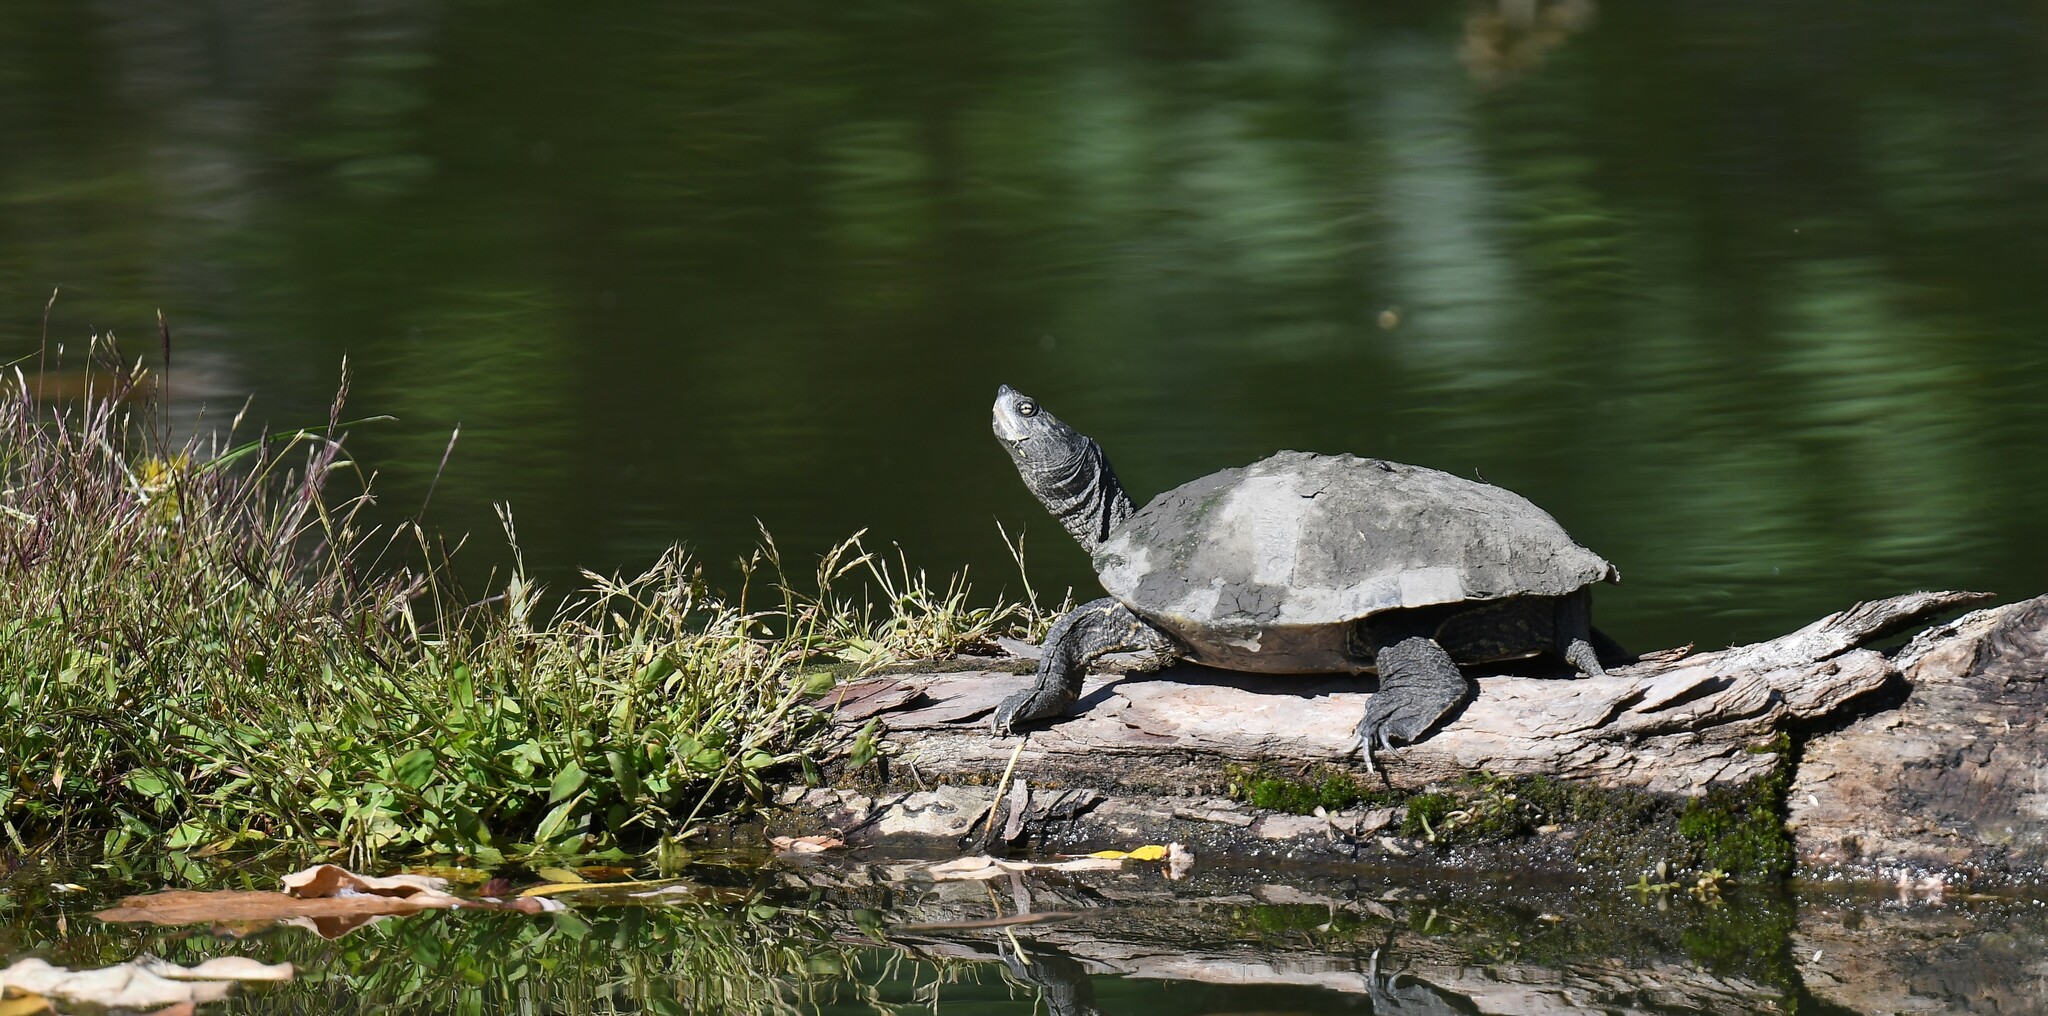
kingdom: Animalia
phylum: Chordata
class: Testudines
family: Emydidae
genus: Graptemys
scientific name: Graptemys geographica
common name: Common map turtle
